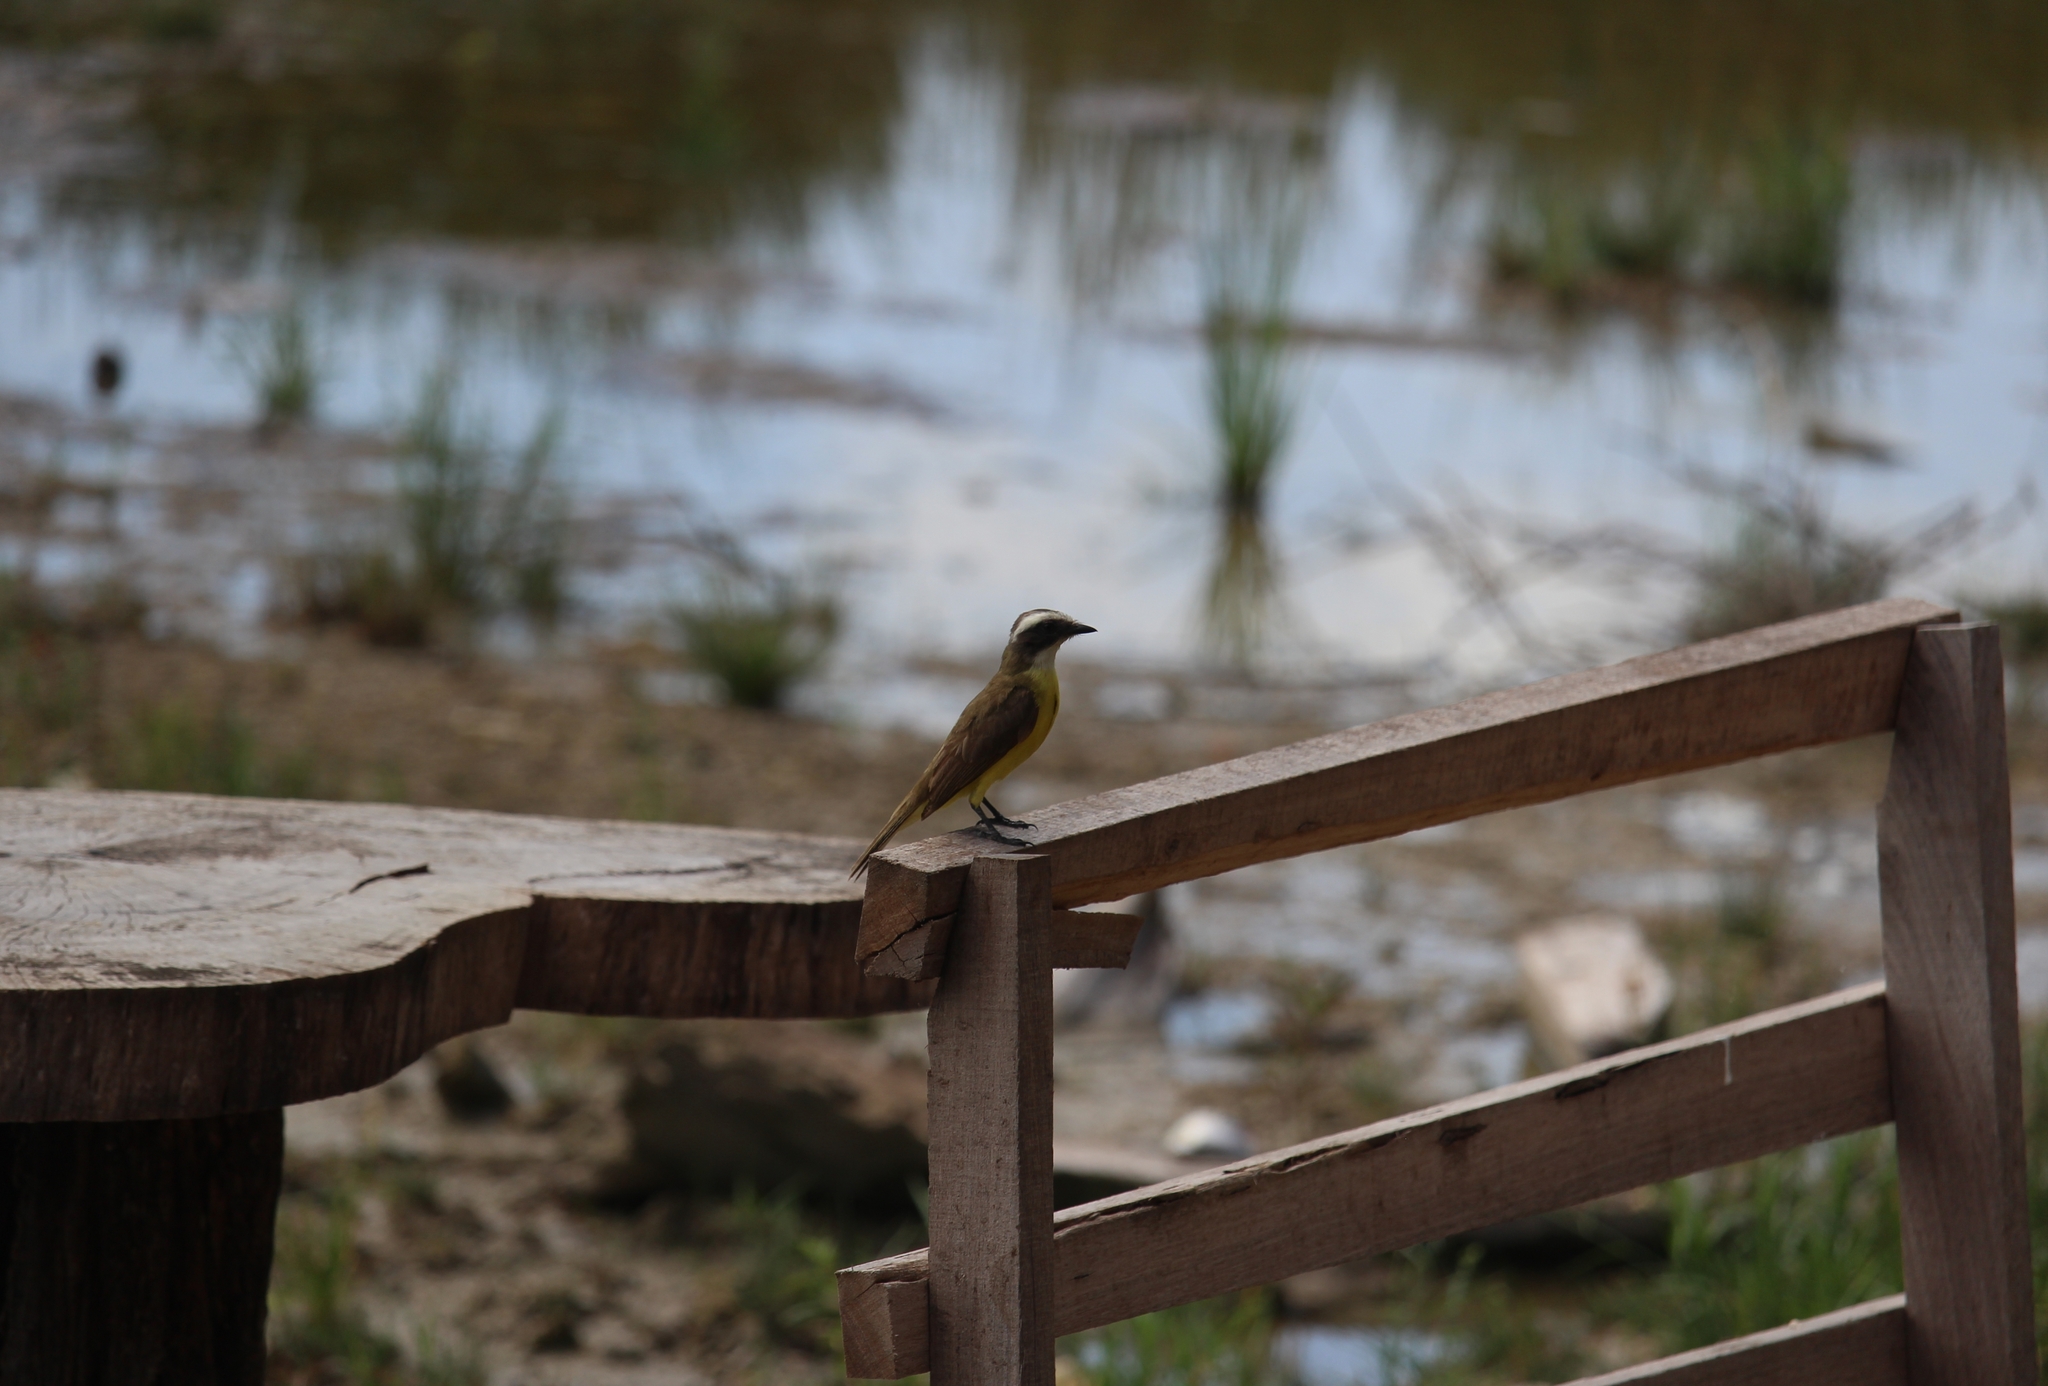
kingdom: Animalia
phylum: Chordata
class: Aves
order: Passeriformes
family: Tyrannidae
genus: Myiozetetes
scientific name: Myiozetetes similis
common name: Social flycatcher
